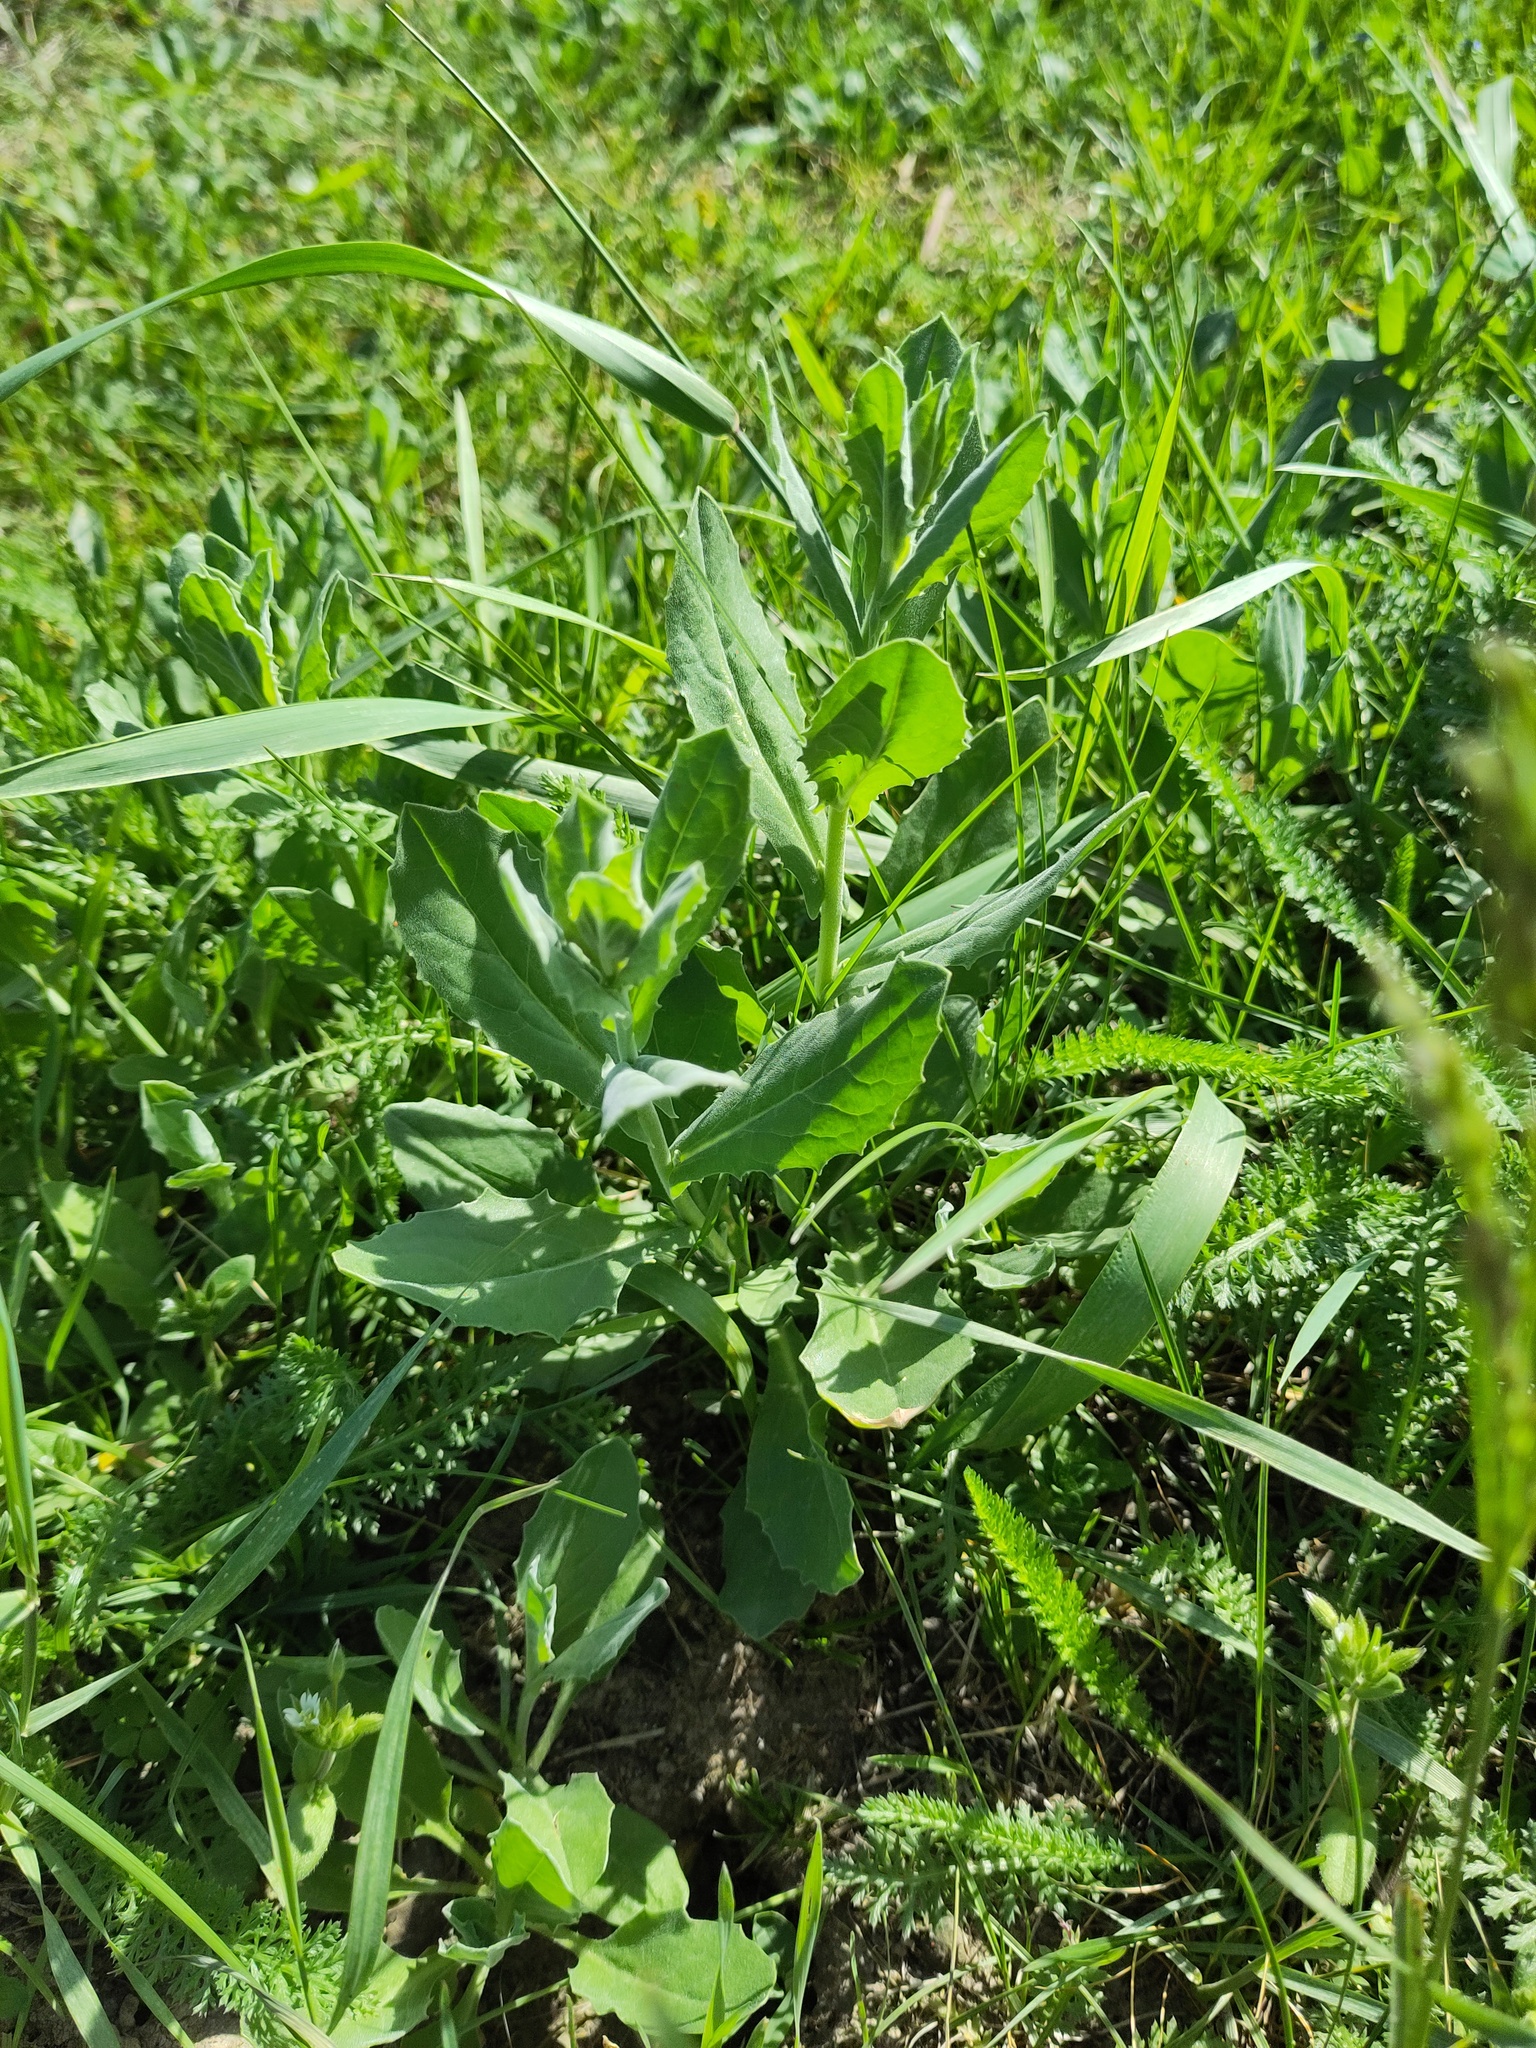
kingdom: Plantae
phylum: Tracheophyta
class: Magnoliopsida
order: Brassicales
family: Brassicaceae
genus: Lepidium
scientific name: Lepidium draba
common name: Hoary cress
